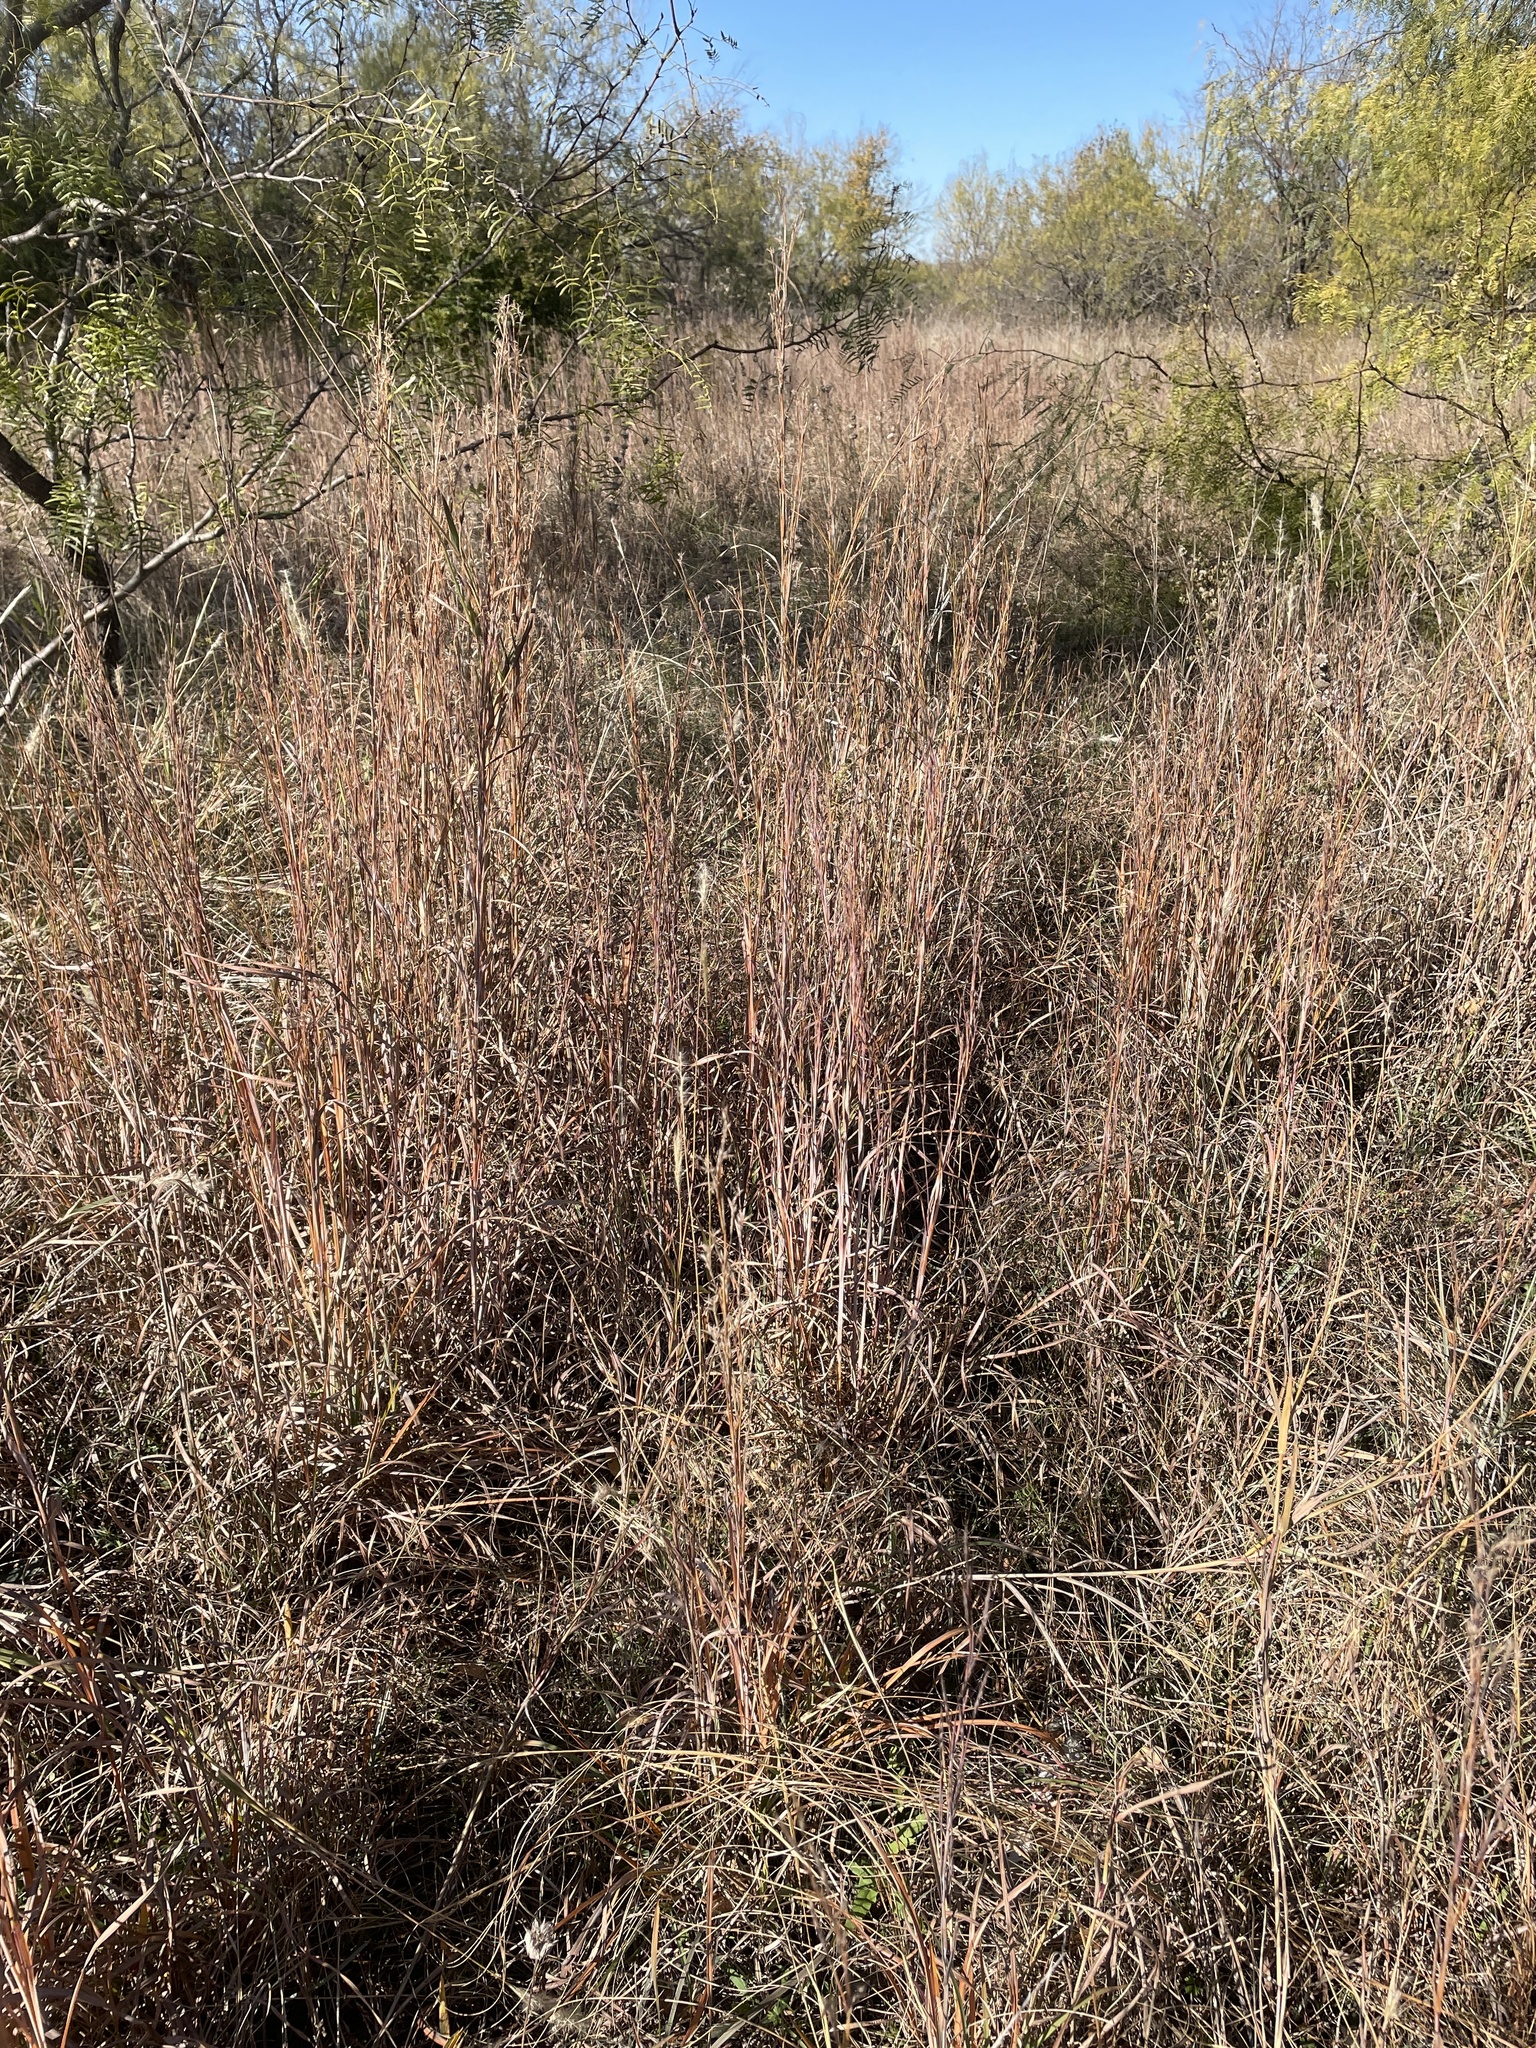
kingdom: Plantae
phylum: Tracheophyta
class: Liliopsida
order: Poales
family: Poaceae
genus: Schizachyrium
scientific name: Schizachyrium scoparium
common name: Little bluestem
